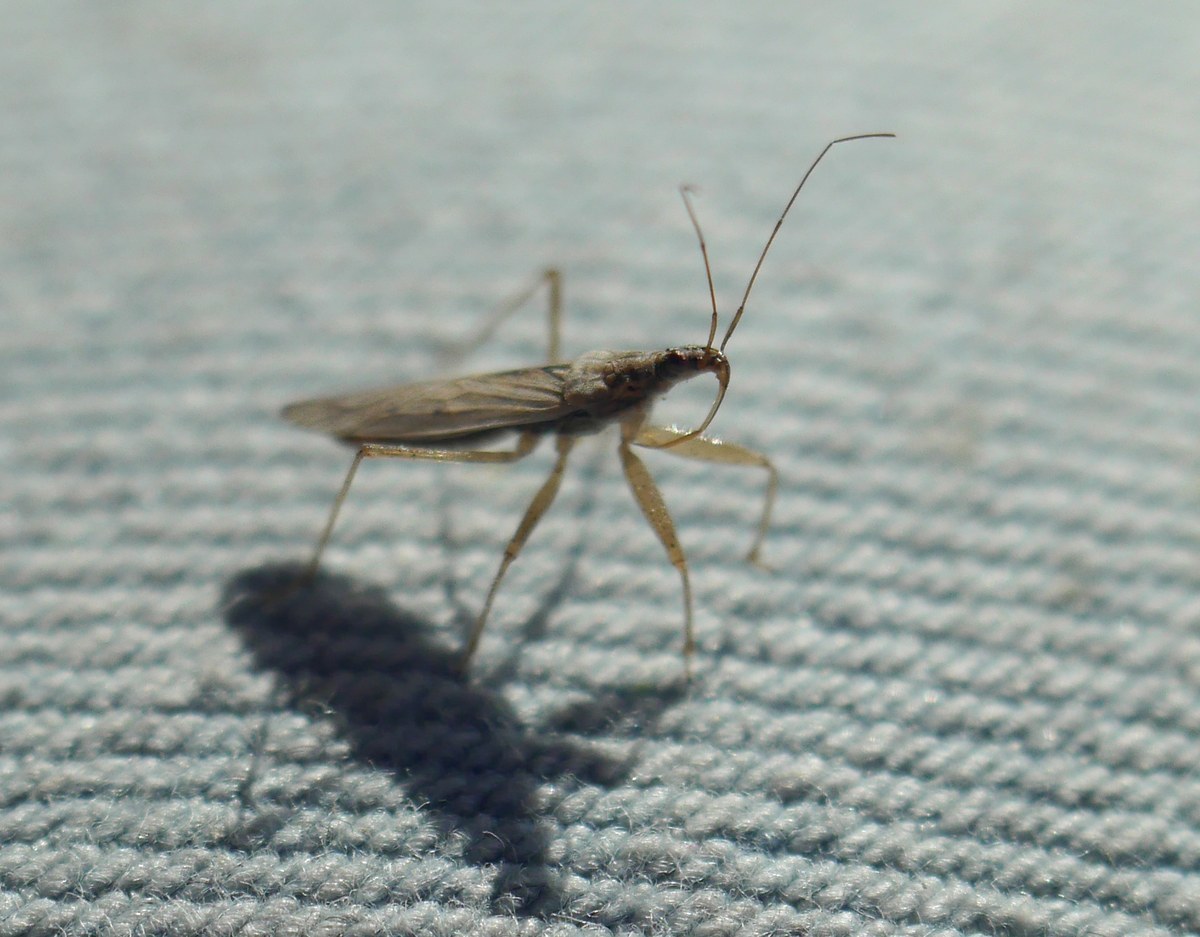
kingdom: Animalia
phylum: Arthropoda
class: Insecta
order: Hemiptera
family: Nabidae
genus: Nabis
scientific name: Nabis
